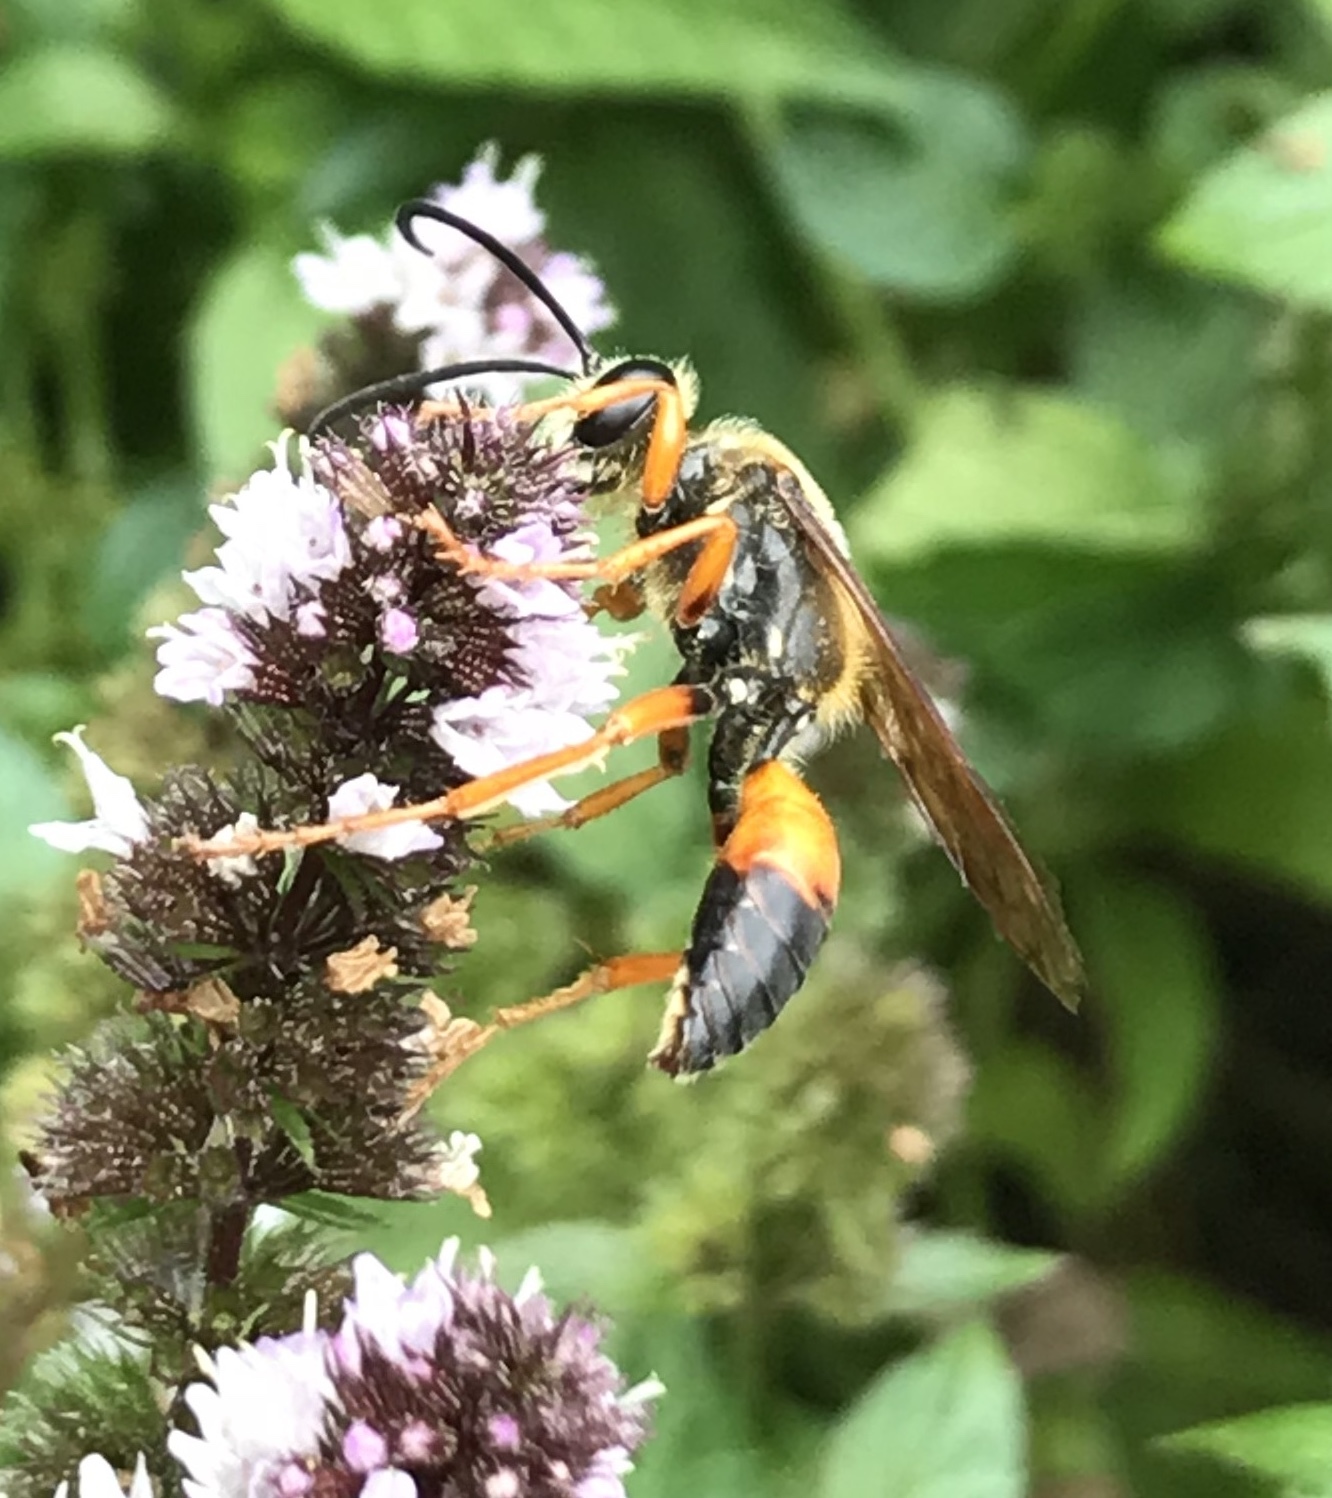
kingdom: Animalia
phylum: Arthropoda
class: Insecta
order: Hymenoptera
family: Sphecidae
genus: Sphex
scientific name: Sphex ichneumoneus
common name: Great golden digger wasp
